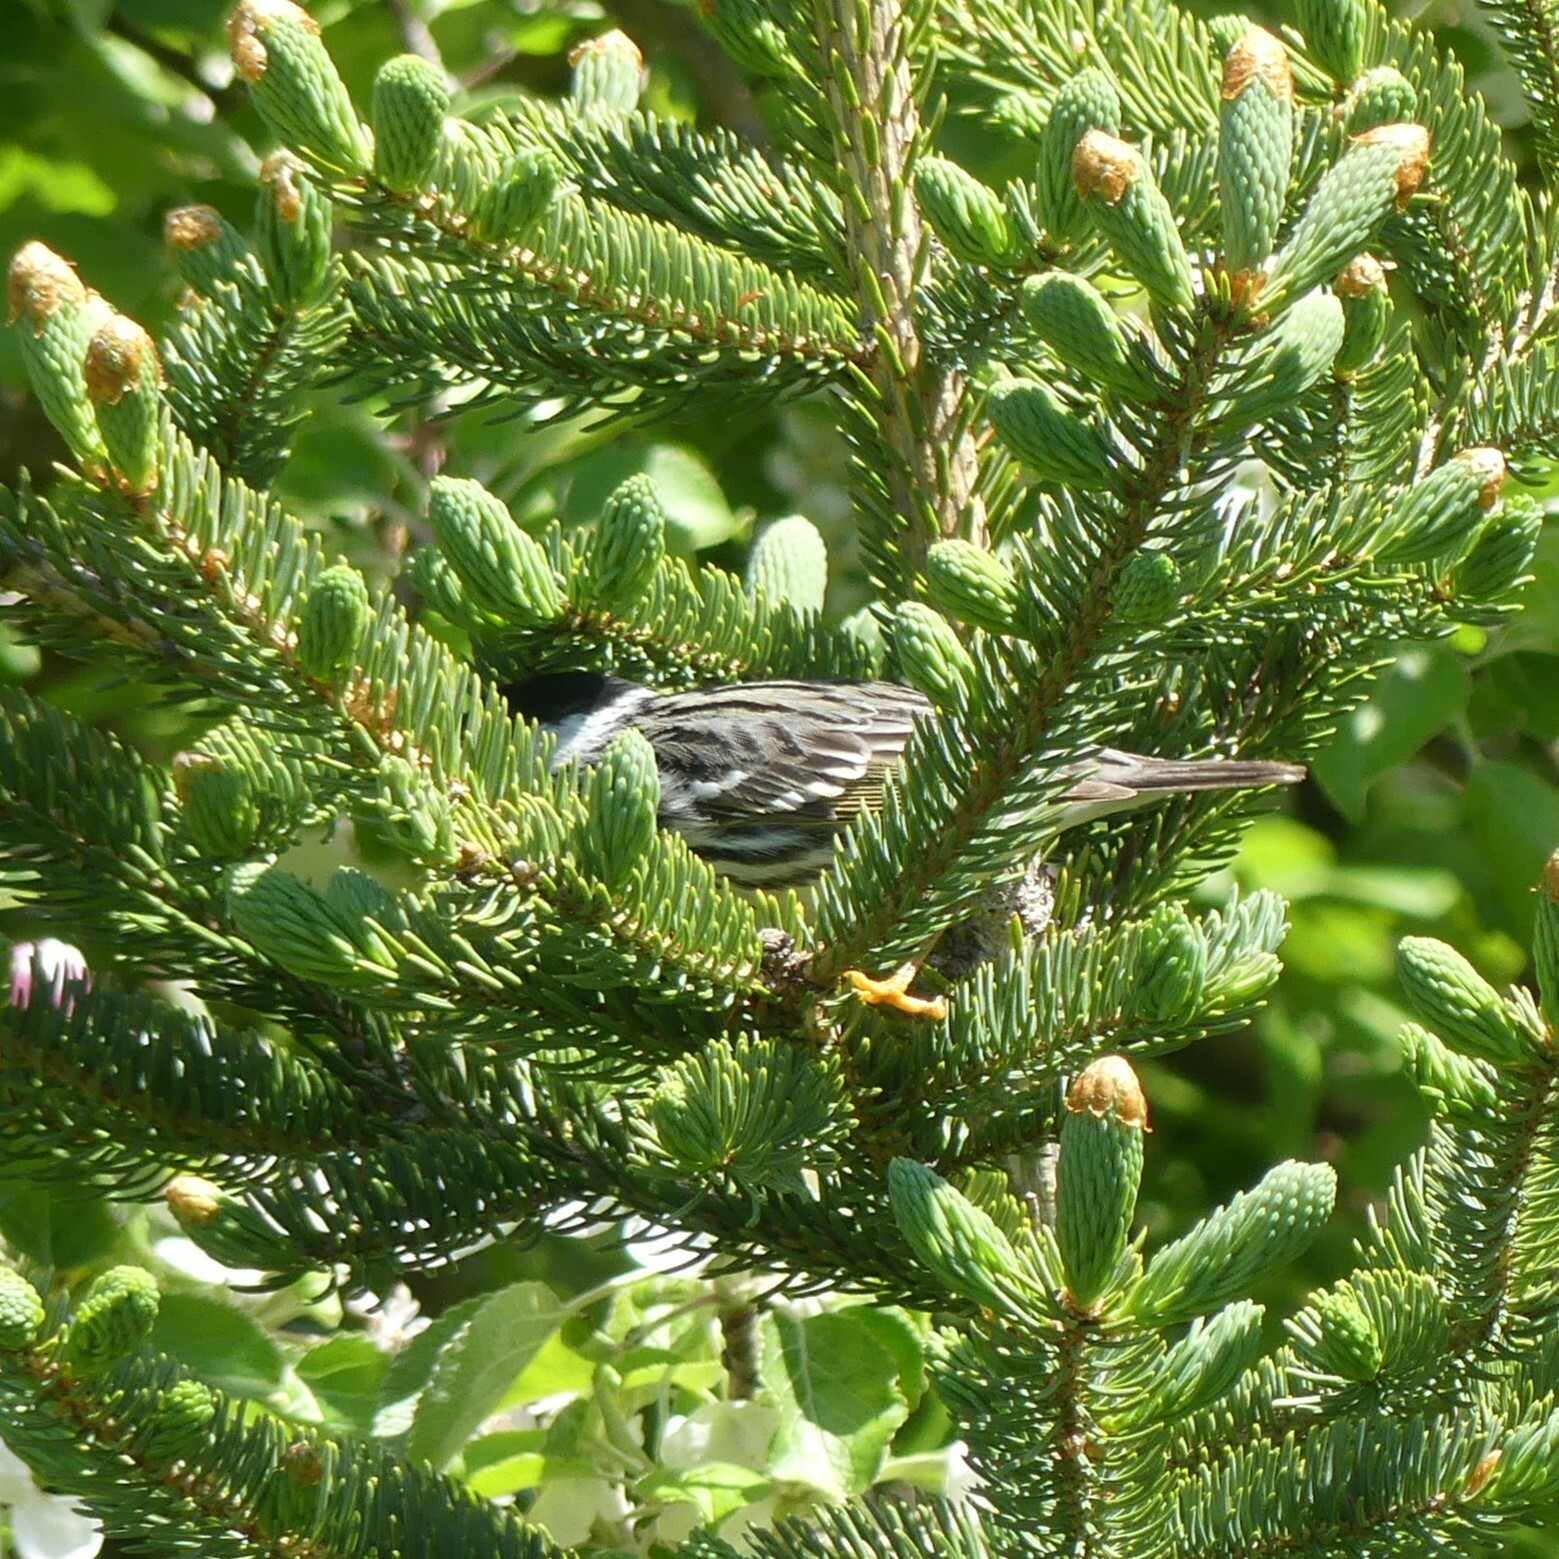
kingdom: Animalia
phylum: Chordata
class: Aves
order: Passeriformes
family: Parulidae
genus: Setophaga
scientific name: Setophaga striata
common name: Blackpoll warbler
